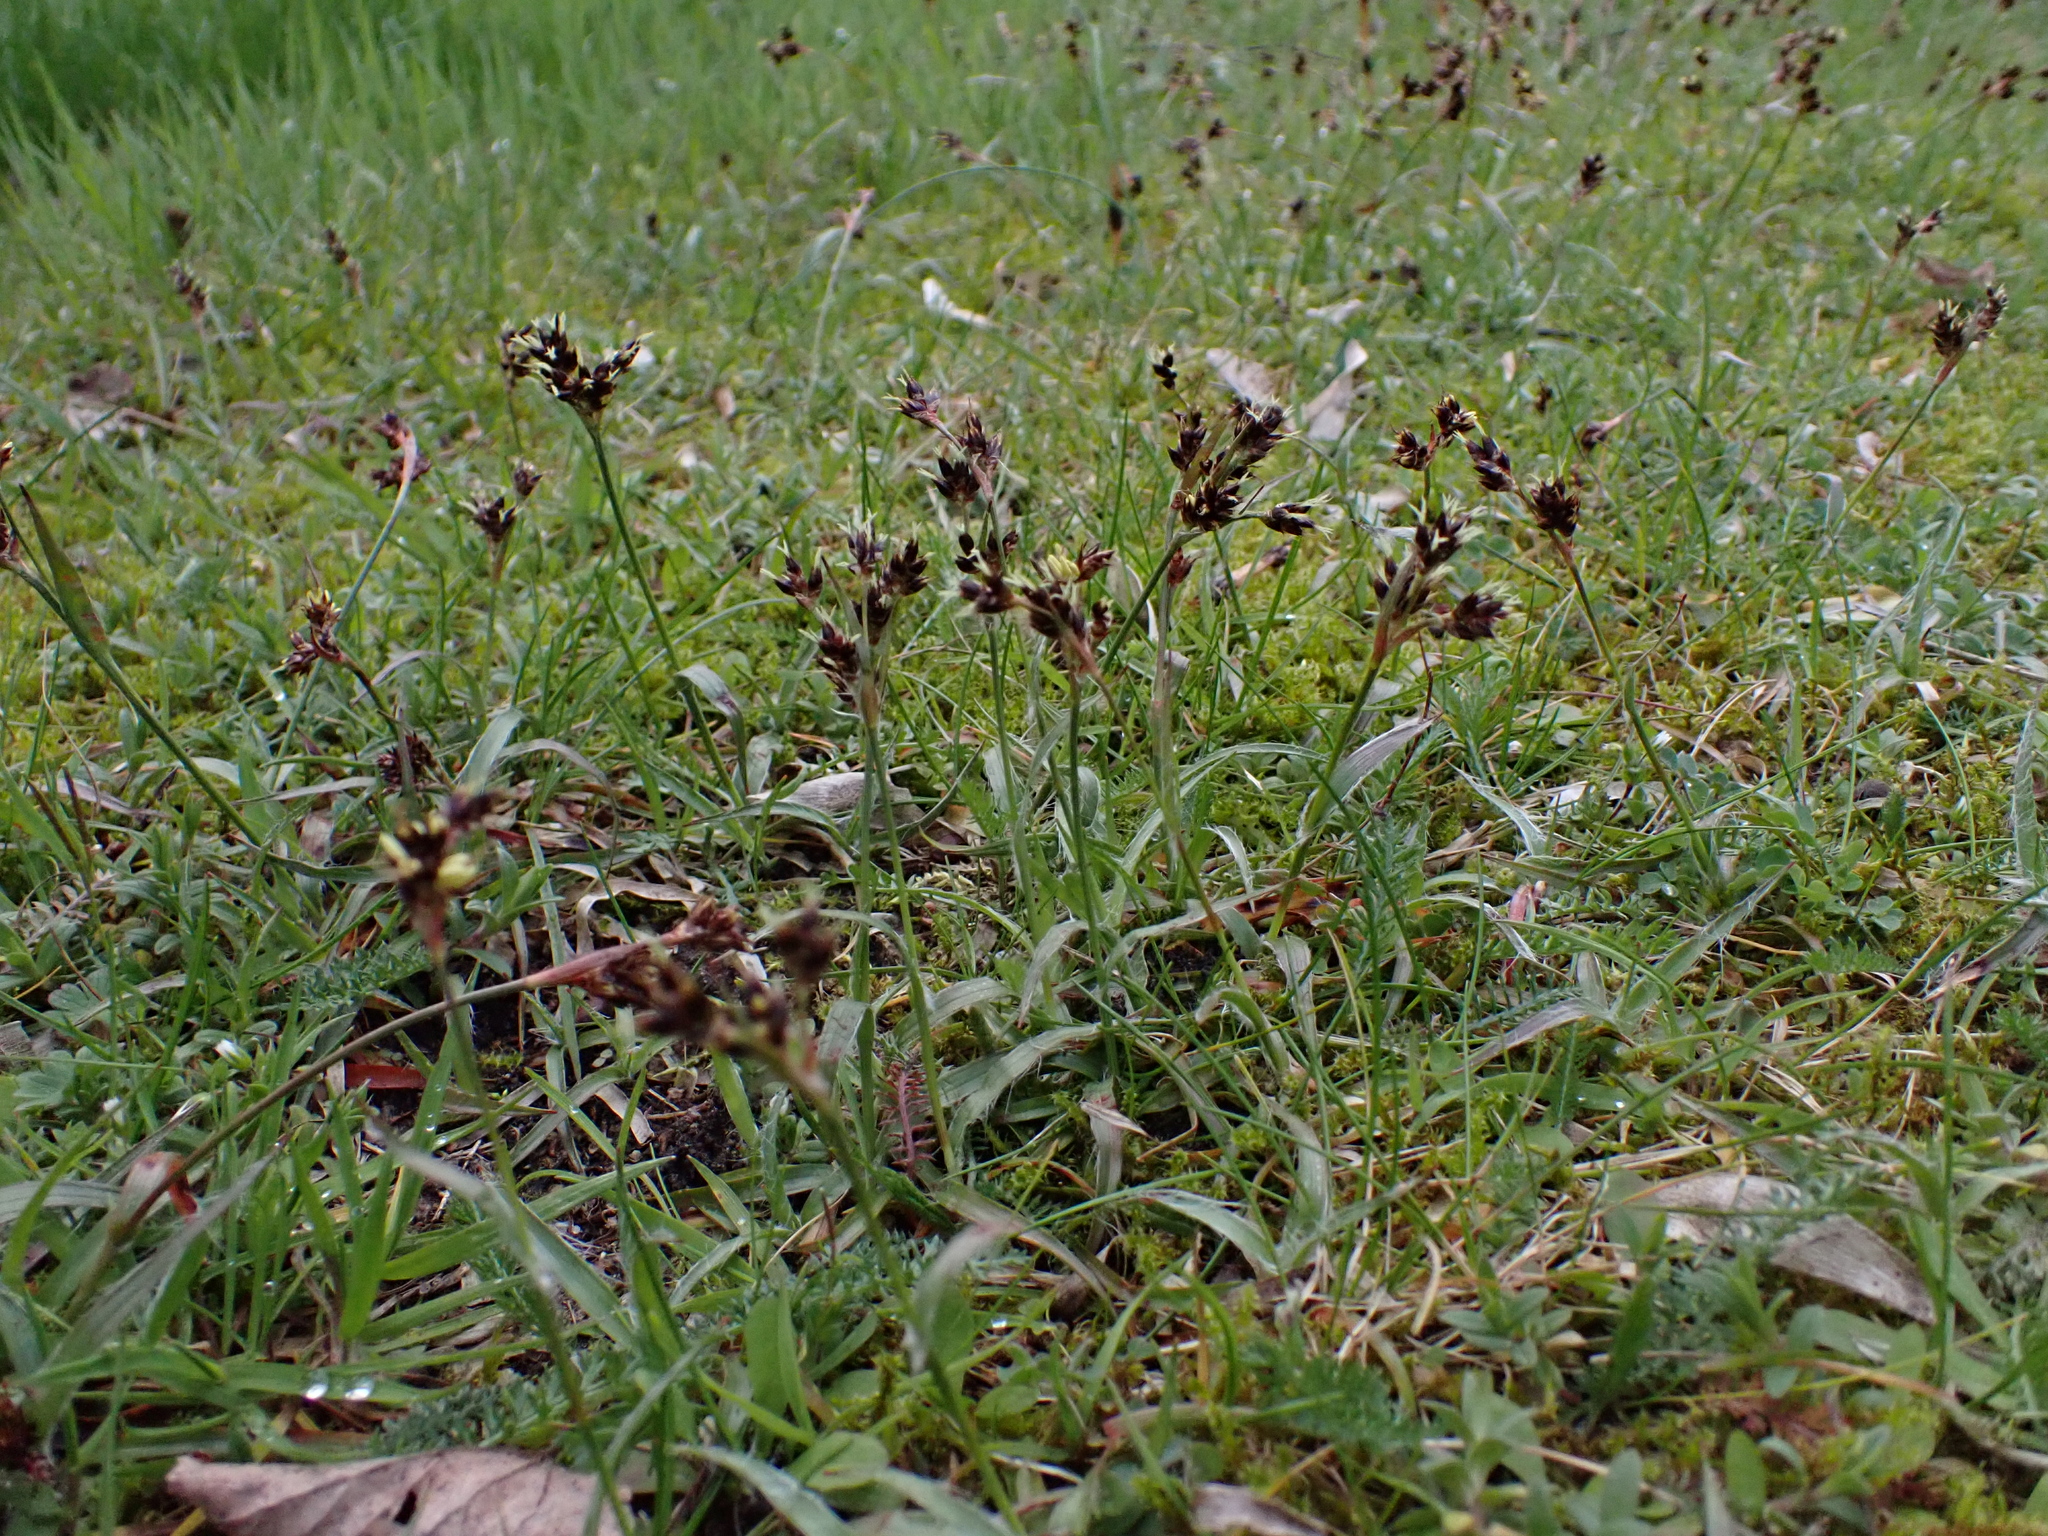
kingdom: Plantae
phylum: Tracheophyta
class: Liliopsida
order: Poales
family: Juncaceae
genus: Luzula
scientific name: Luzula campestris
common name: Field wood-rush
